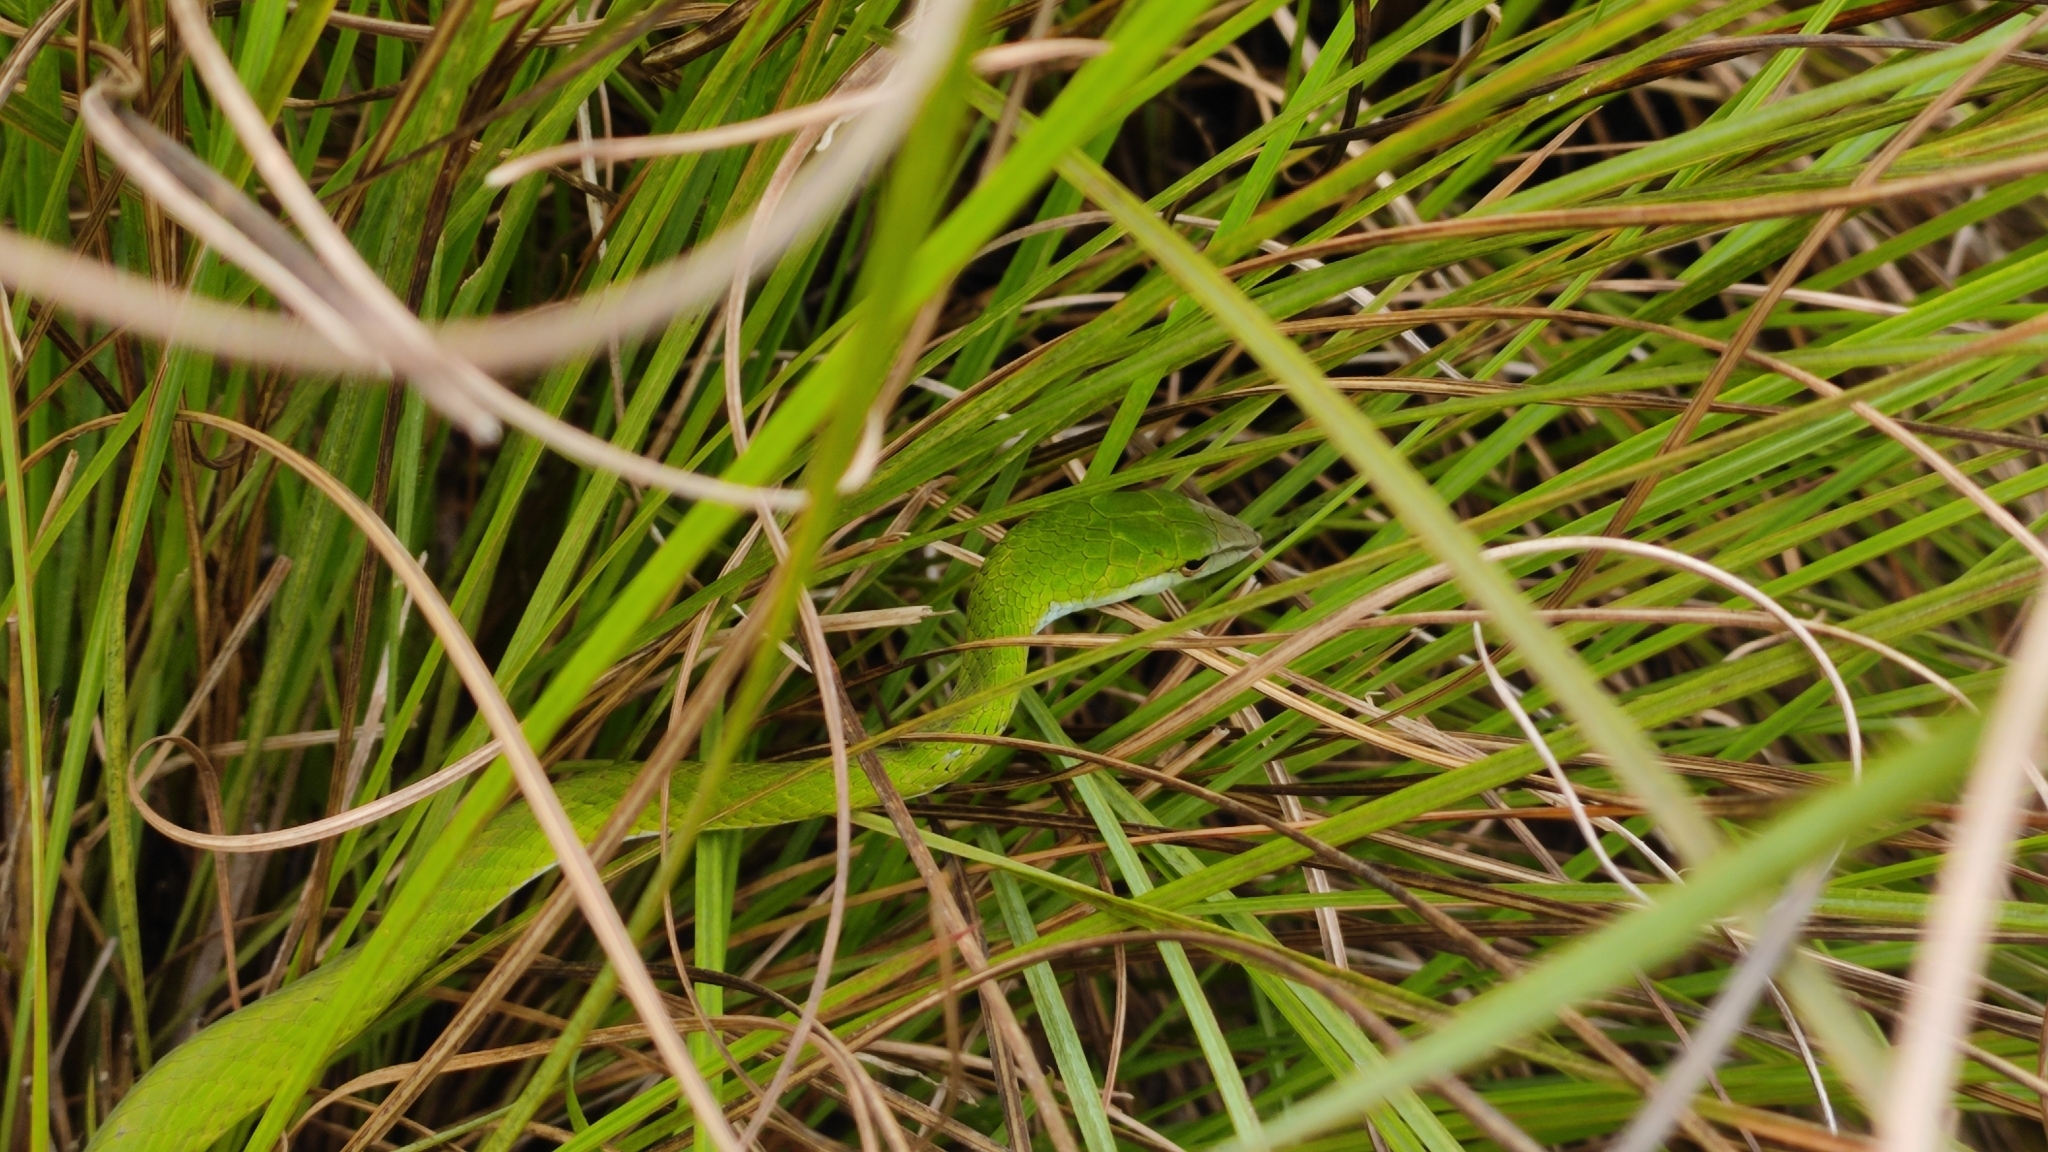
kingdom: Animalia
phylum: Chordata
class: Squamata
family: Colubridae
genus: Ahaetulla
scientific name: Ahaetulla dispar
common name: Günther's vine snake
